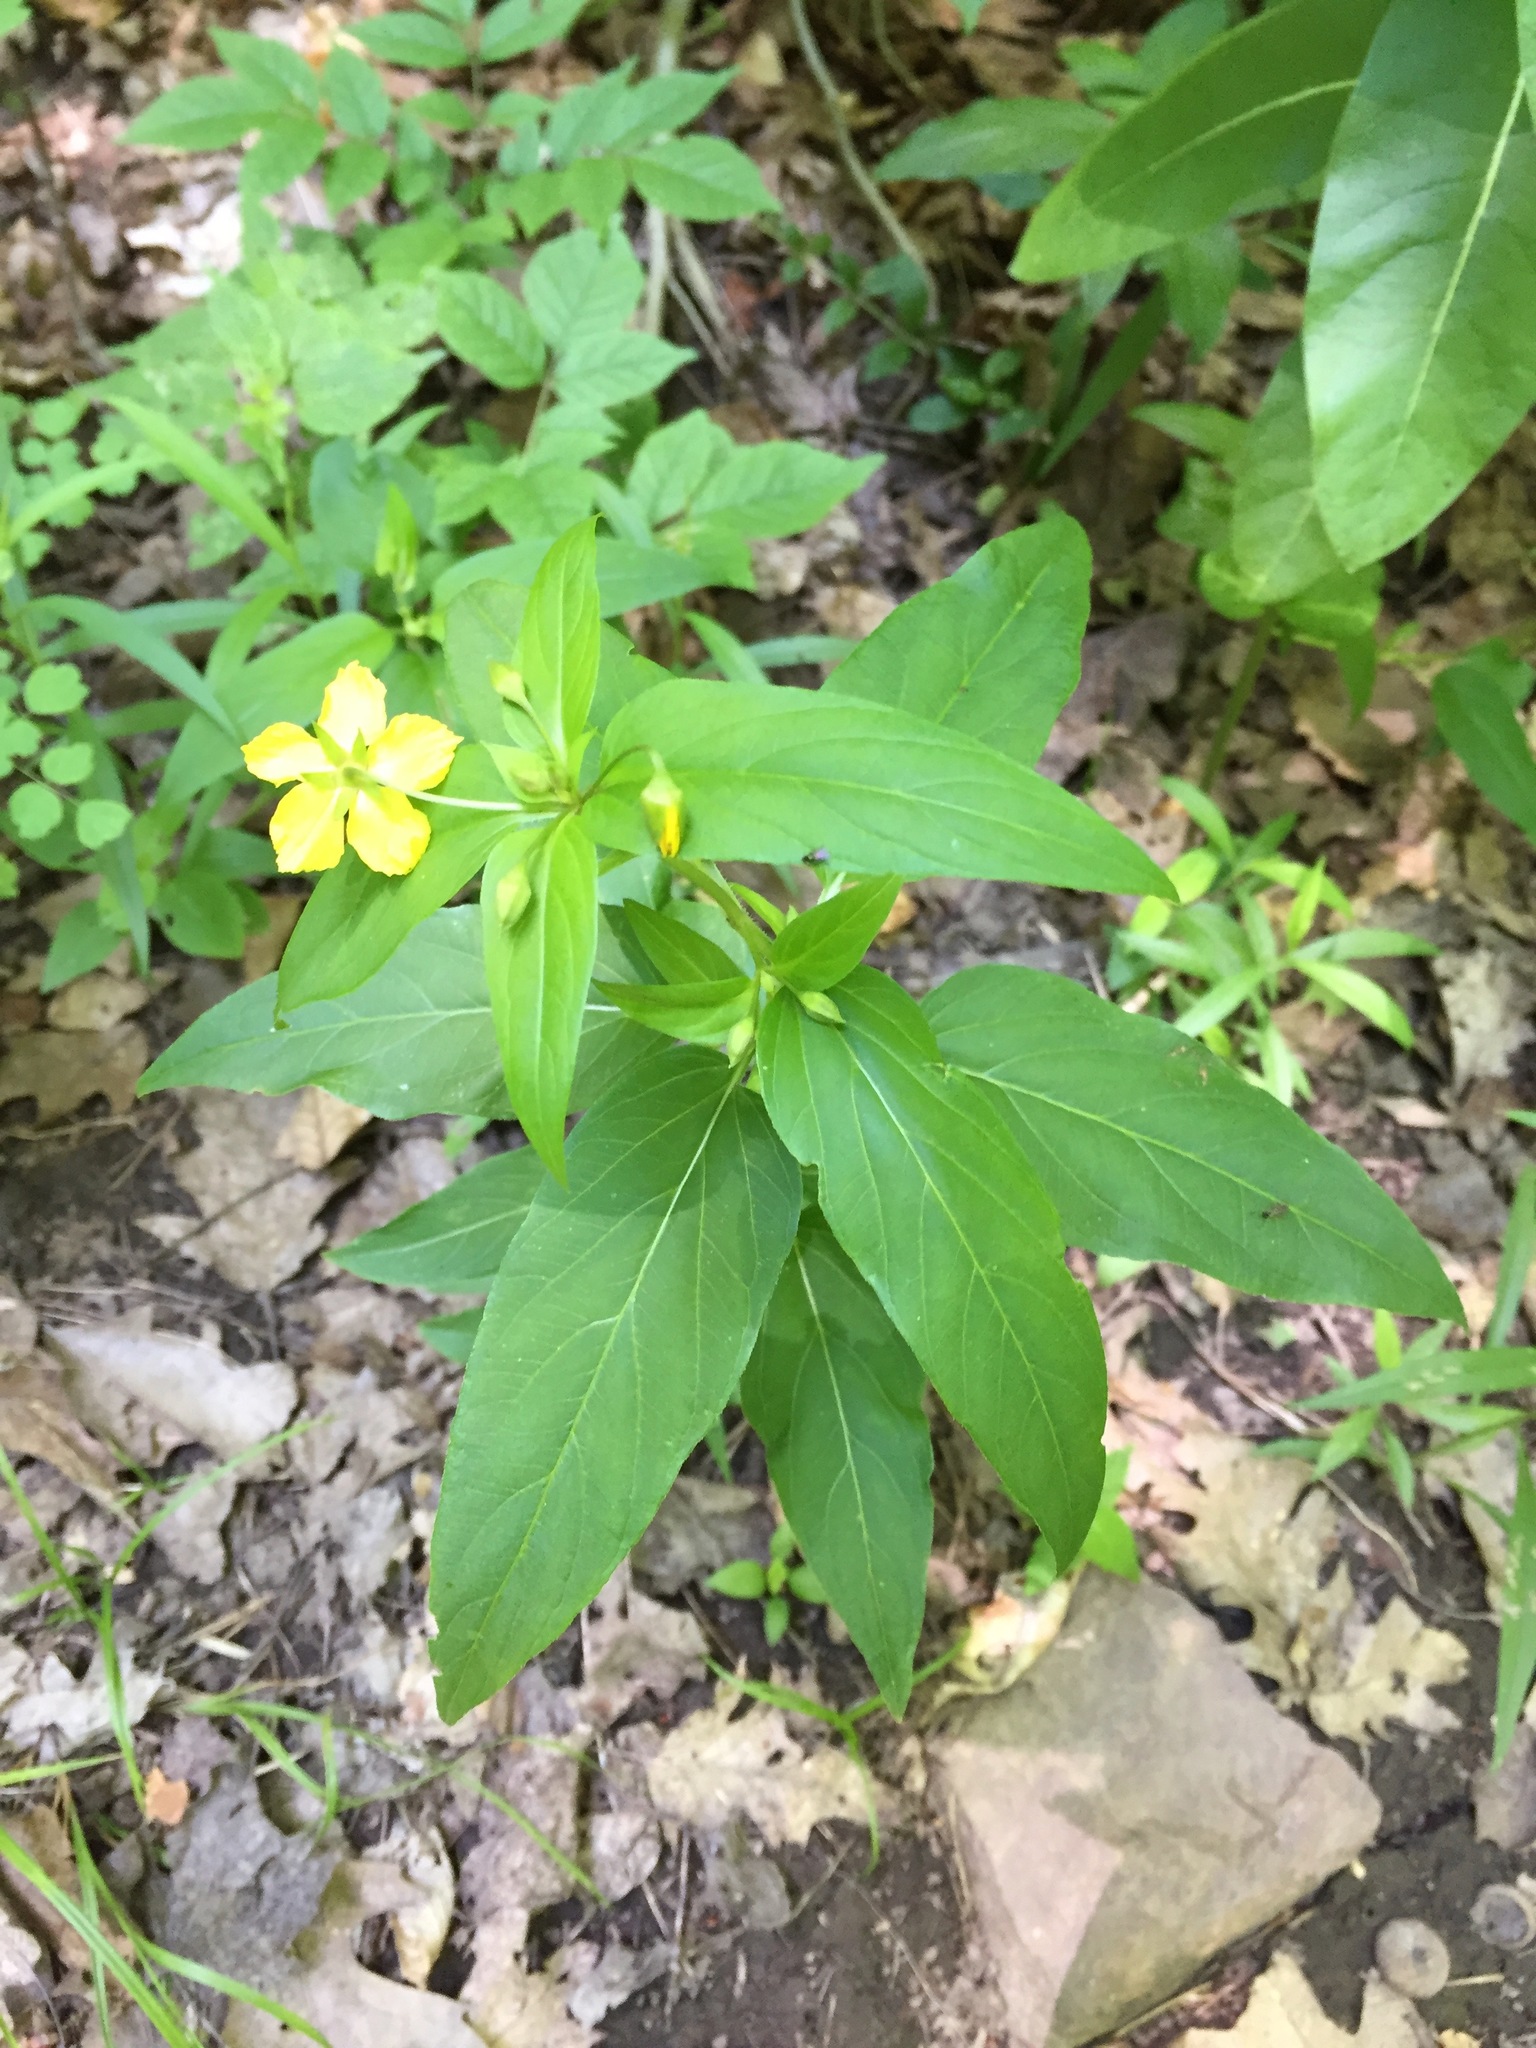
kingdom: Plantae
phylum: Tracheophyta
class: Magnoliopsida
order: Ericales
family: Primulaceae
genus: Lysimachia
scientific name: Lysimachia ciliata
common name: Fringed loosestrife
